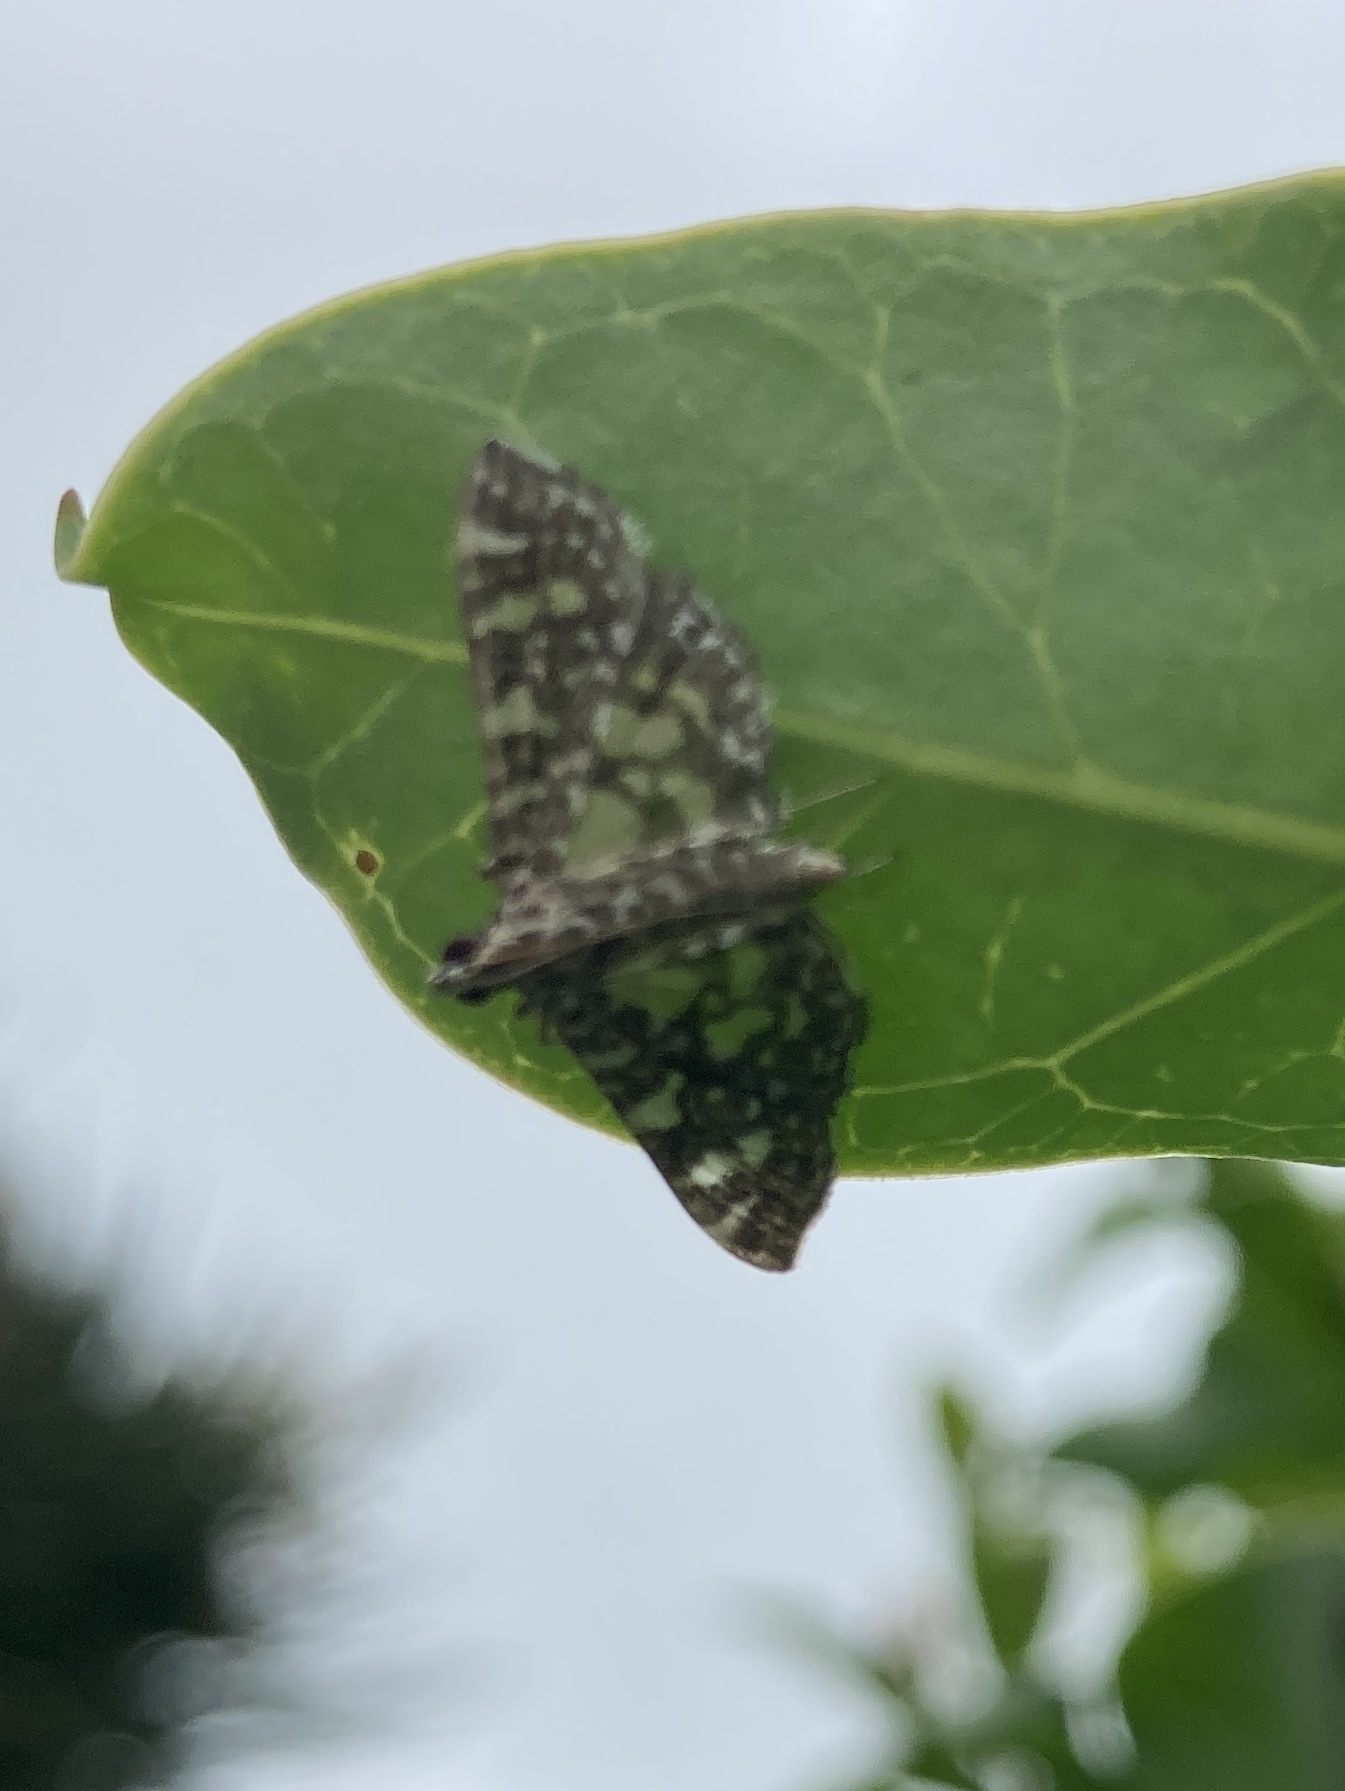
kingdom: Animalia
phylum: Arthropoda
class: Insecta
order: Lepidoptera
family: Crambidae
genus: Glyphodes
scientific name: Glyphodes onychinalis
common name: Swan plant moth
